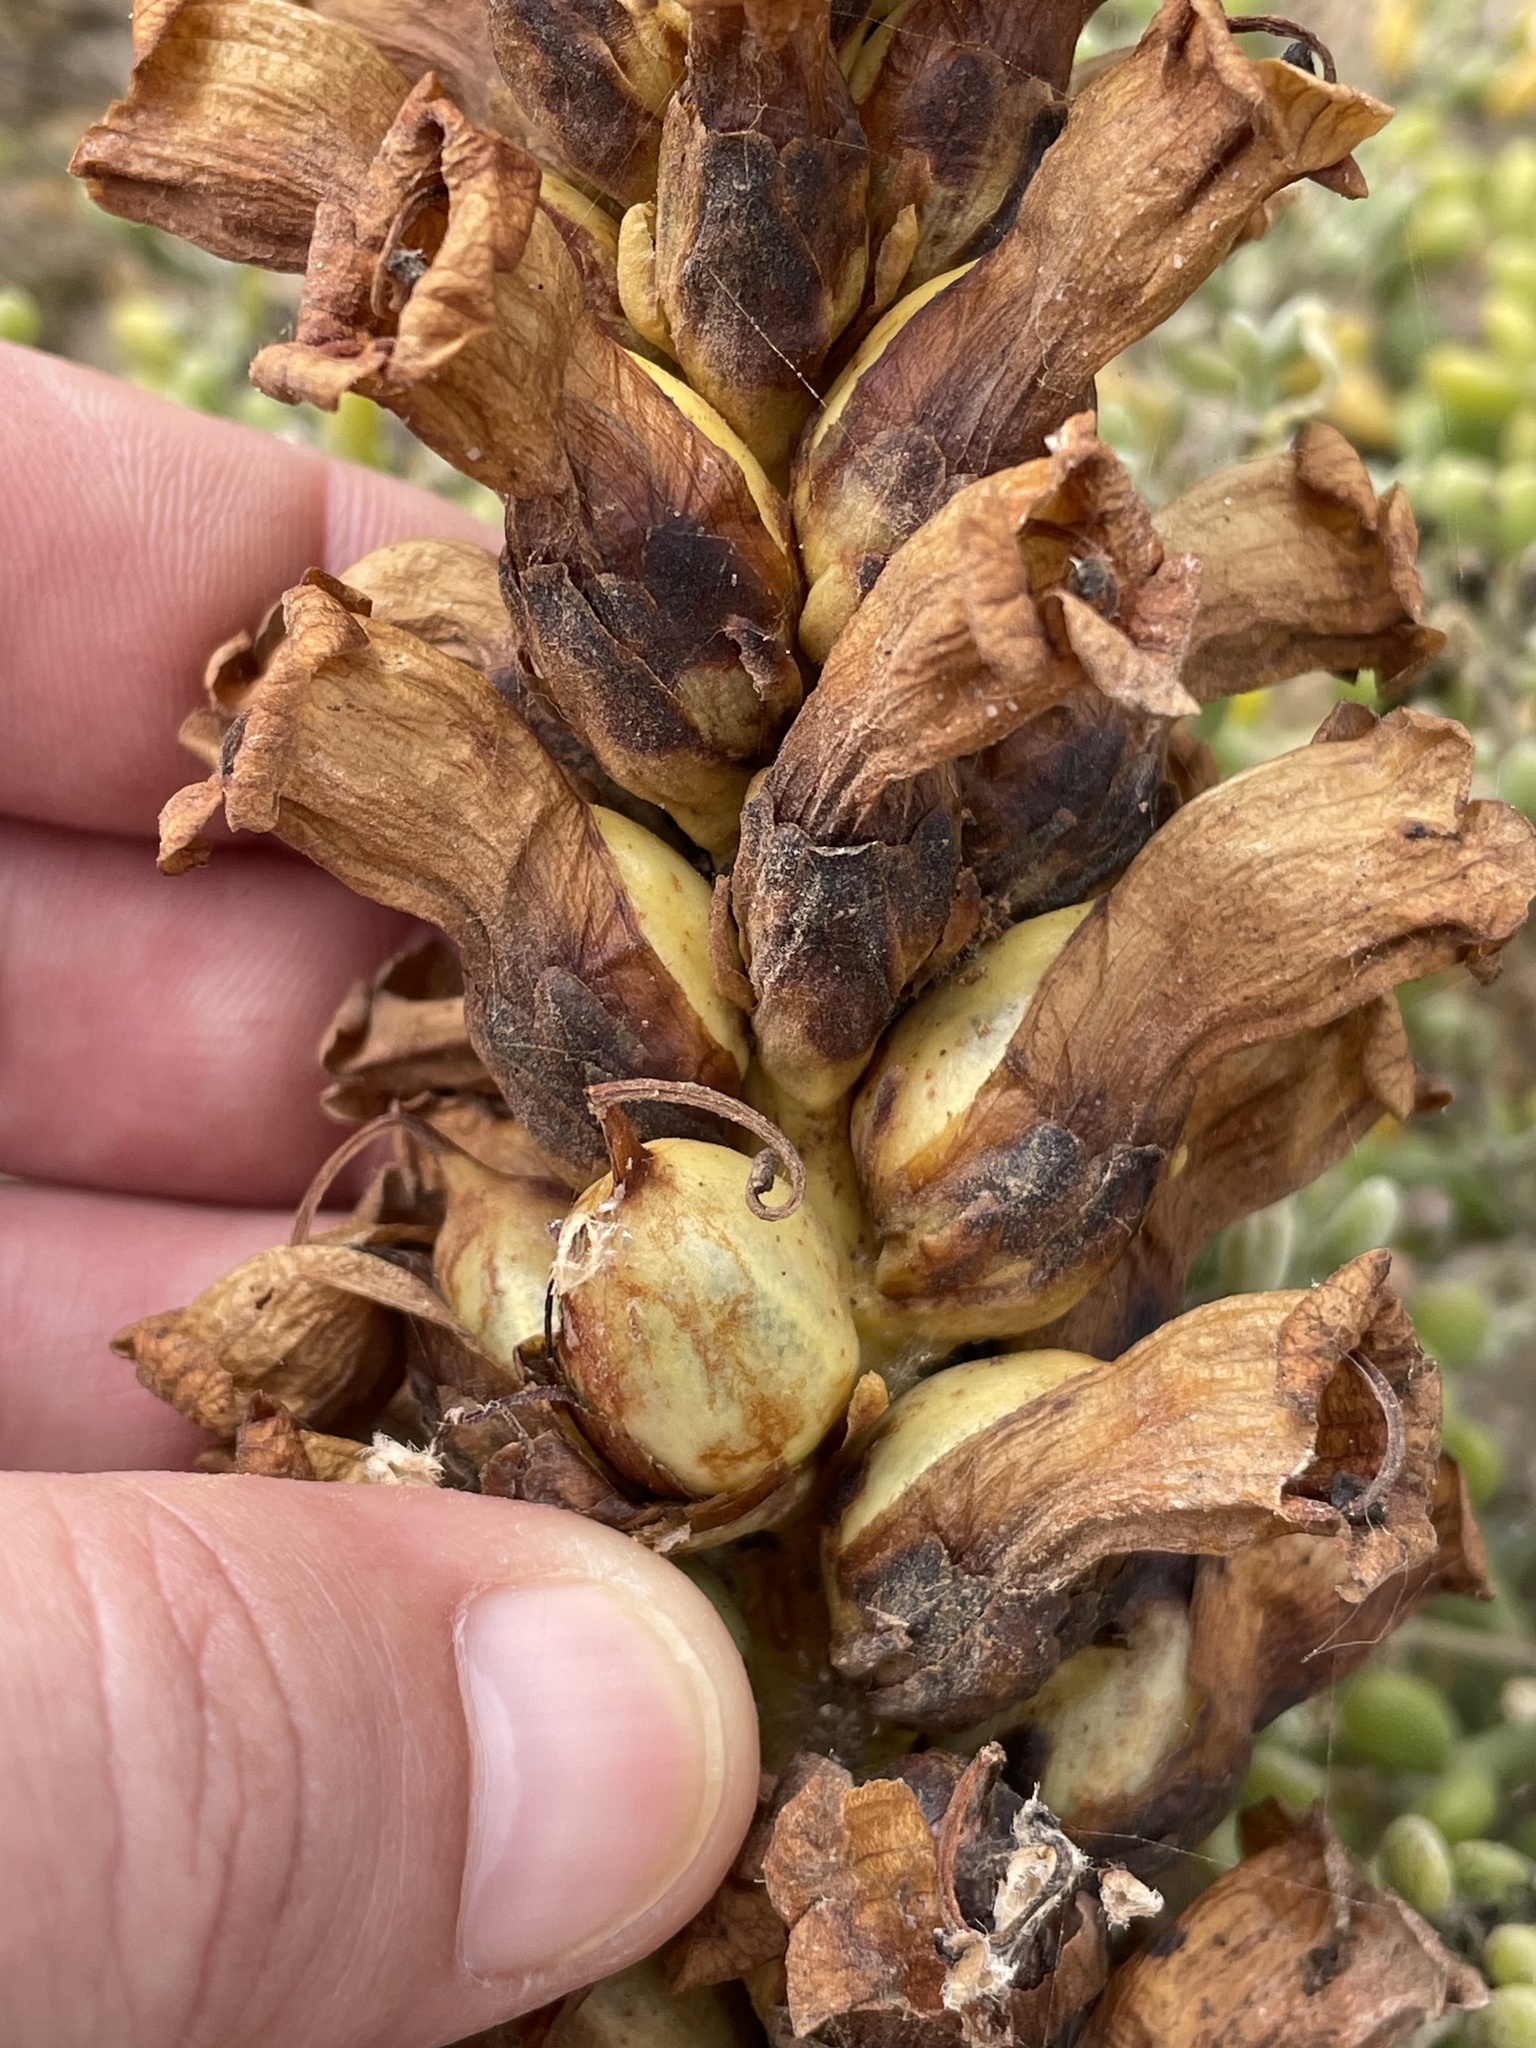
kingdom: Plantae
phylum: Tracheophyta
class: Magnoliopsida
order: Lamiales
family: Orobanchaceae
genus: Cistanche
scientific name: Cistanche phelypaea
